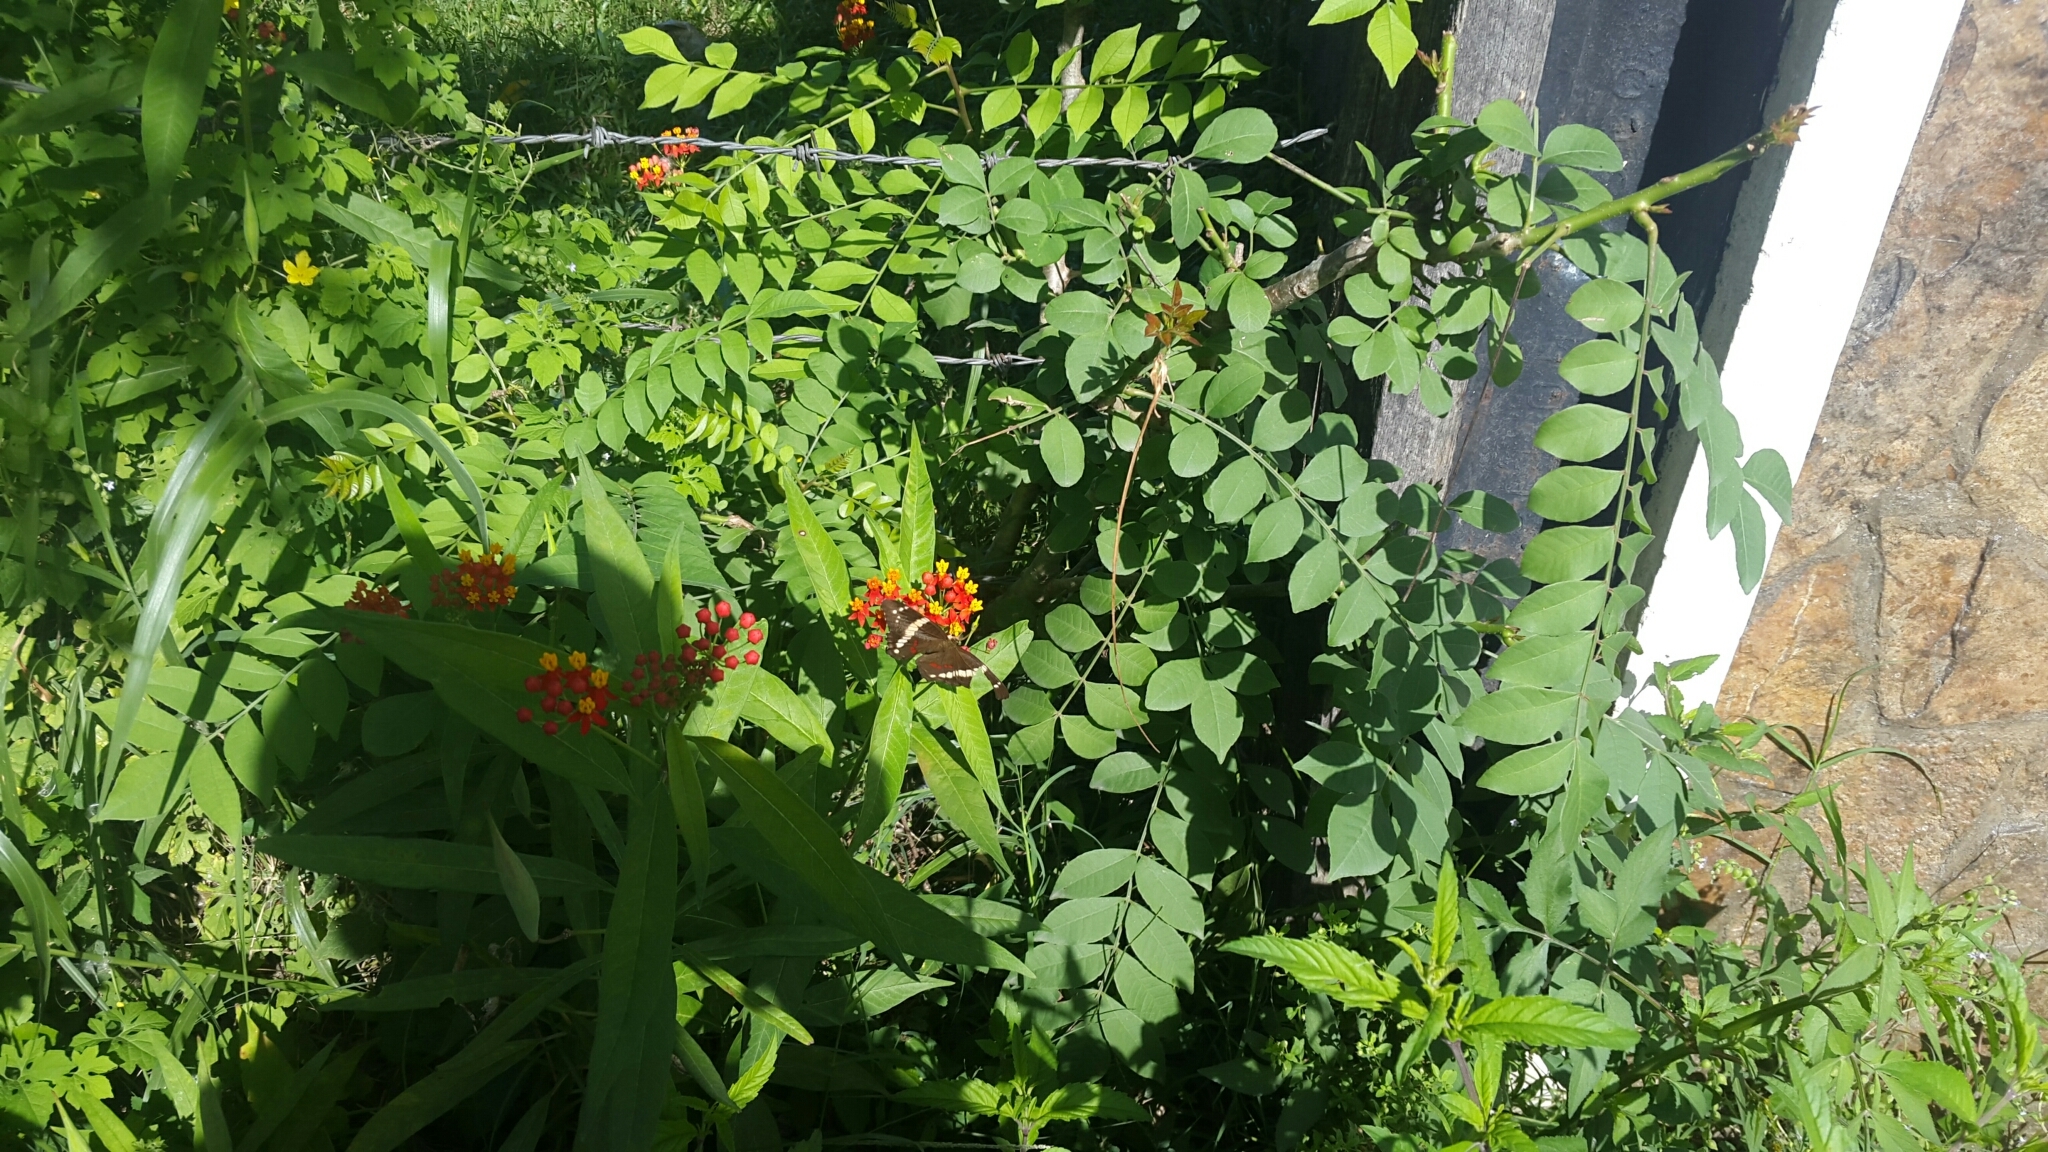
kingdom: Animalia
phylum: Arthropoda
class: Insecta
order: Lepidoptera
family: Nymphalidae
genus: Anartia
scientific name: Anartia fatima
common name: Banded peacock
